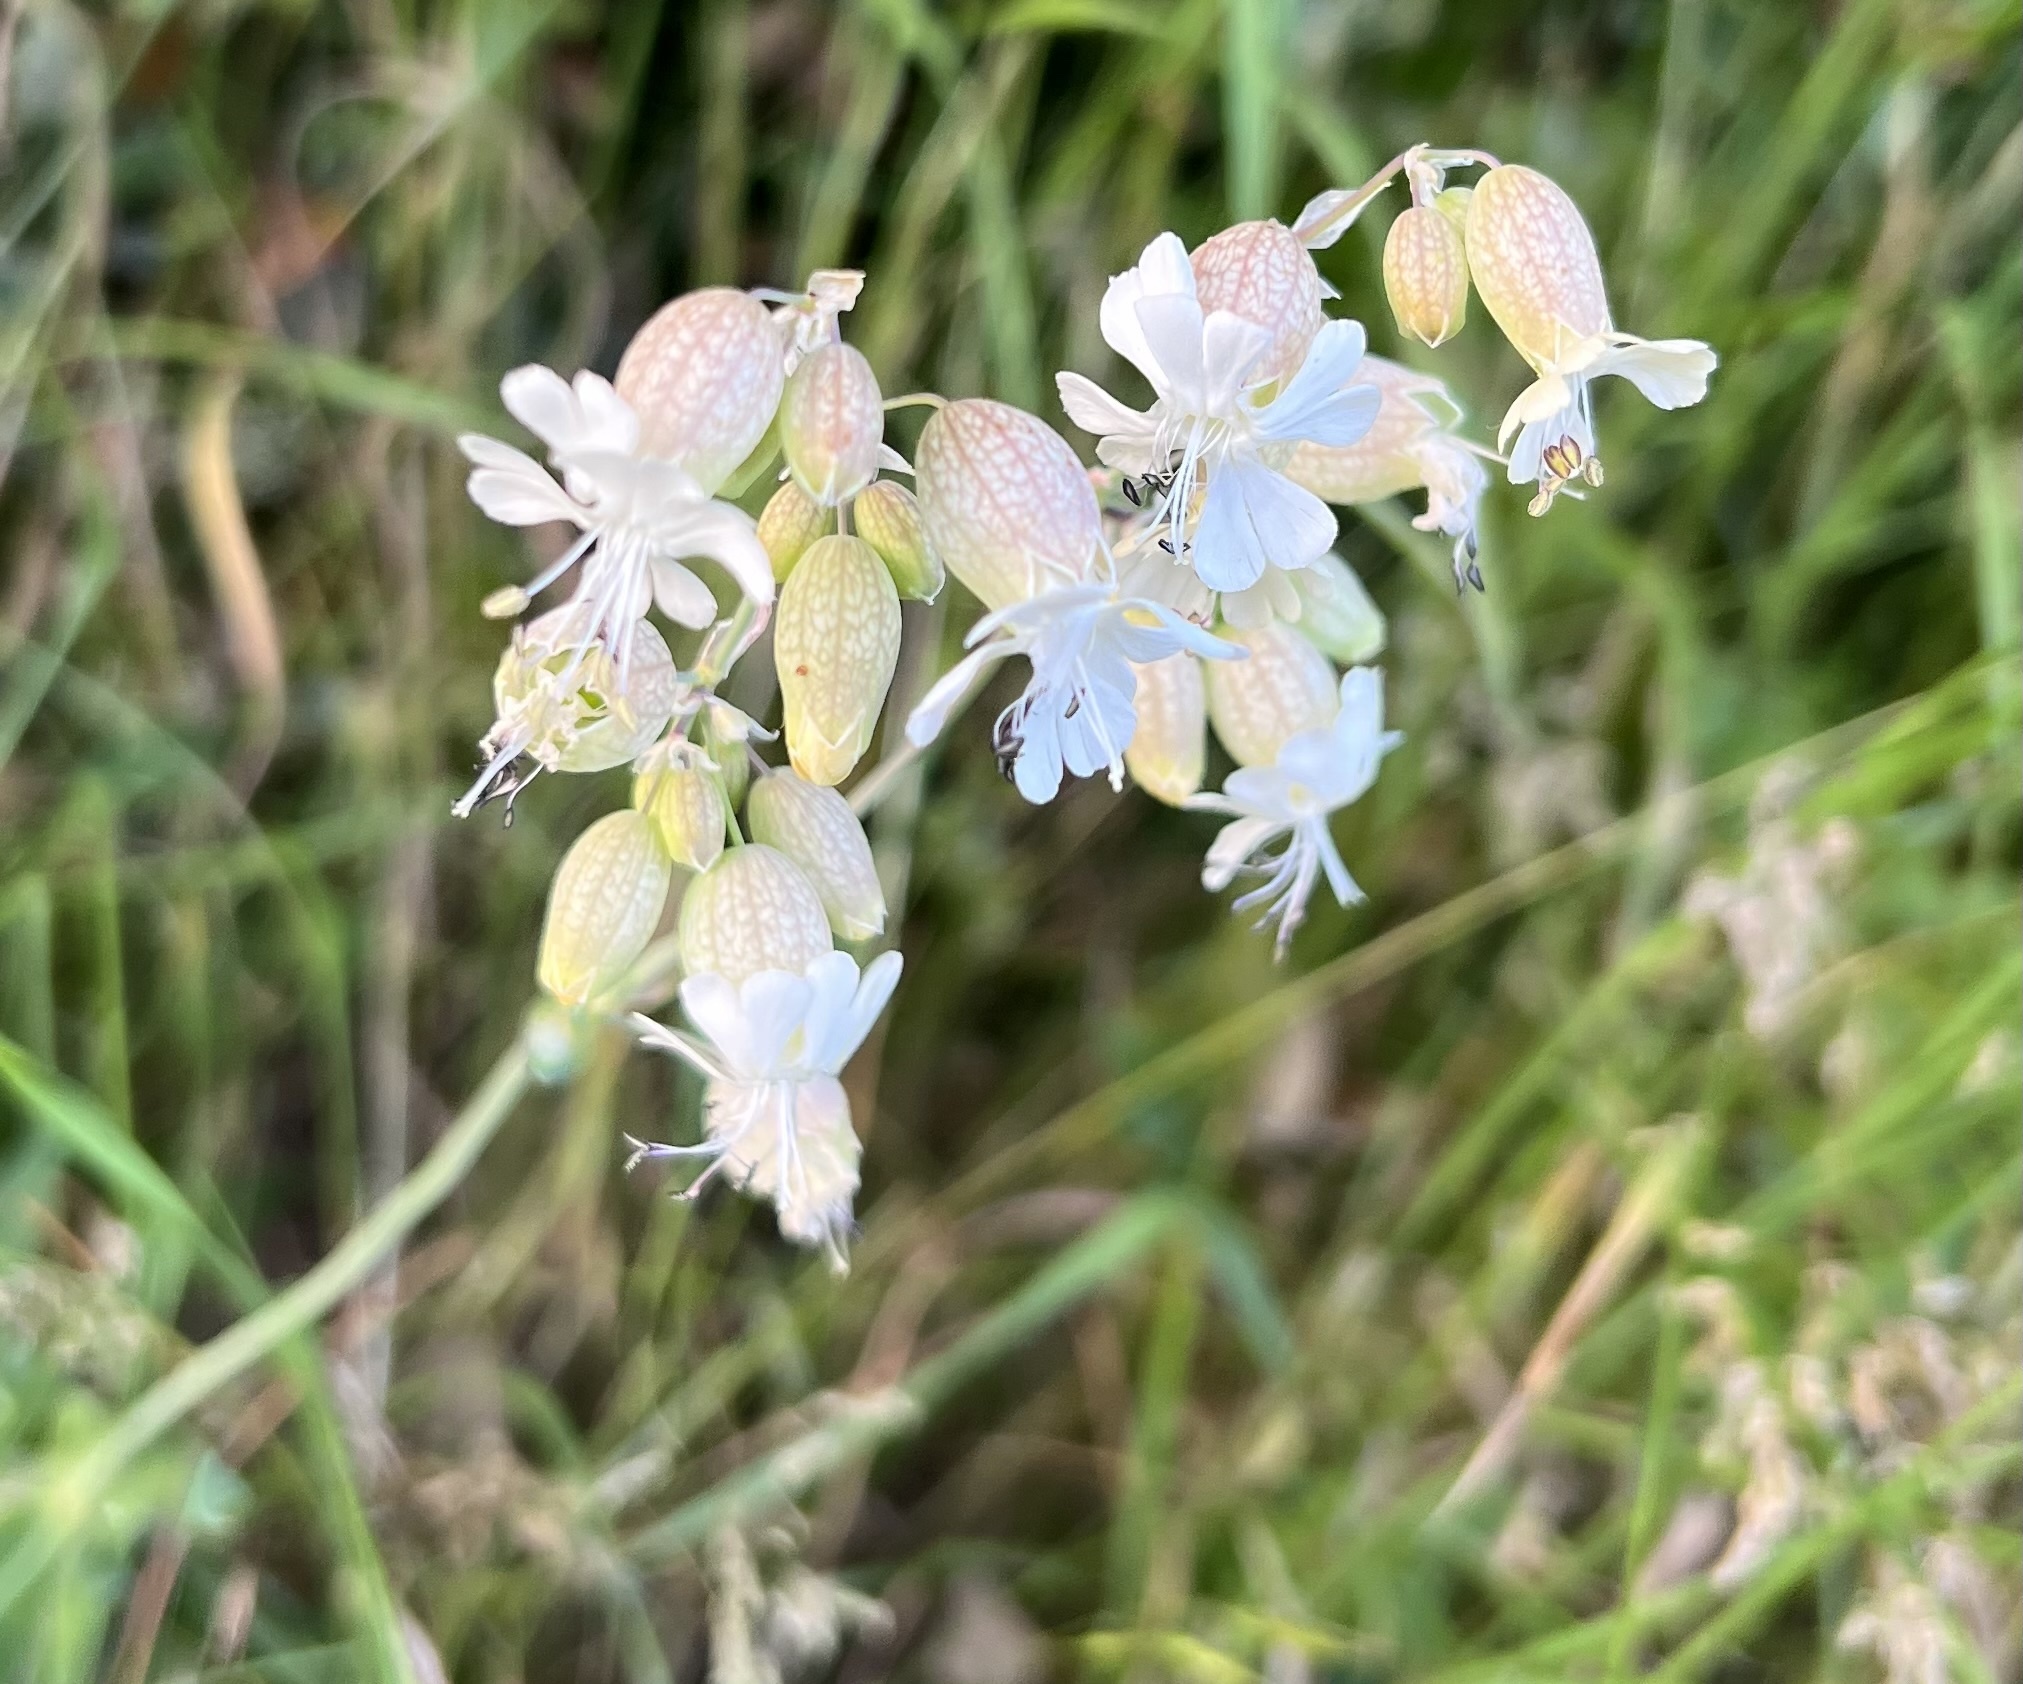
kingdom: Plantae
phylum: Tracheophyta
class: Magnoliopsida
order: Caryophyllales
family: Caryophyllaceae
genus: Silene
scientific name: Silene vulgaris
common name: Bladder campion
